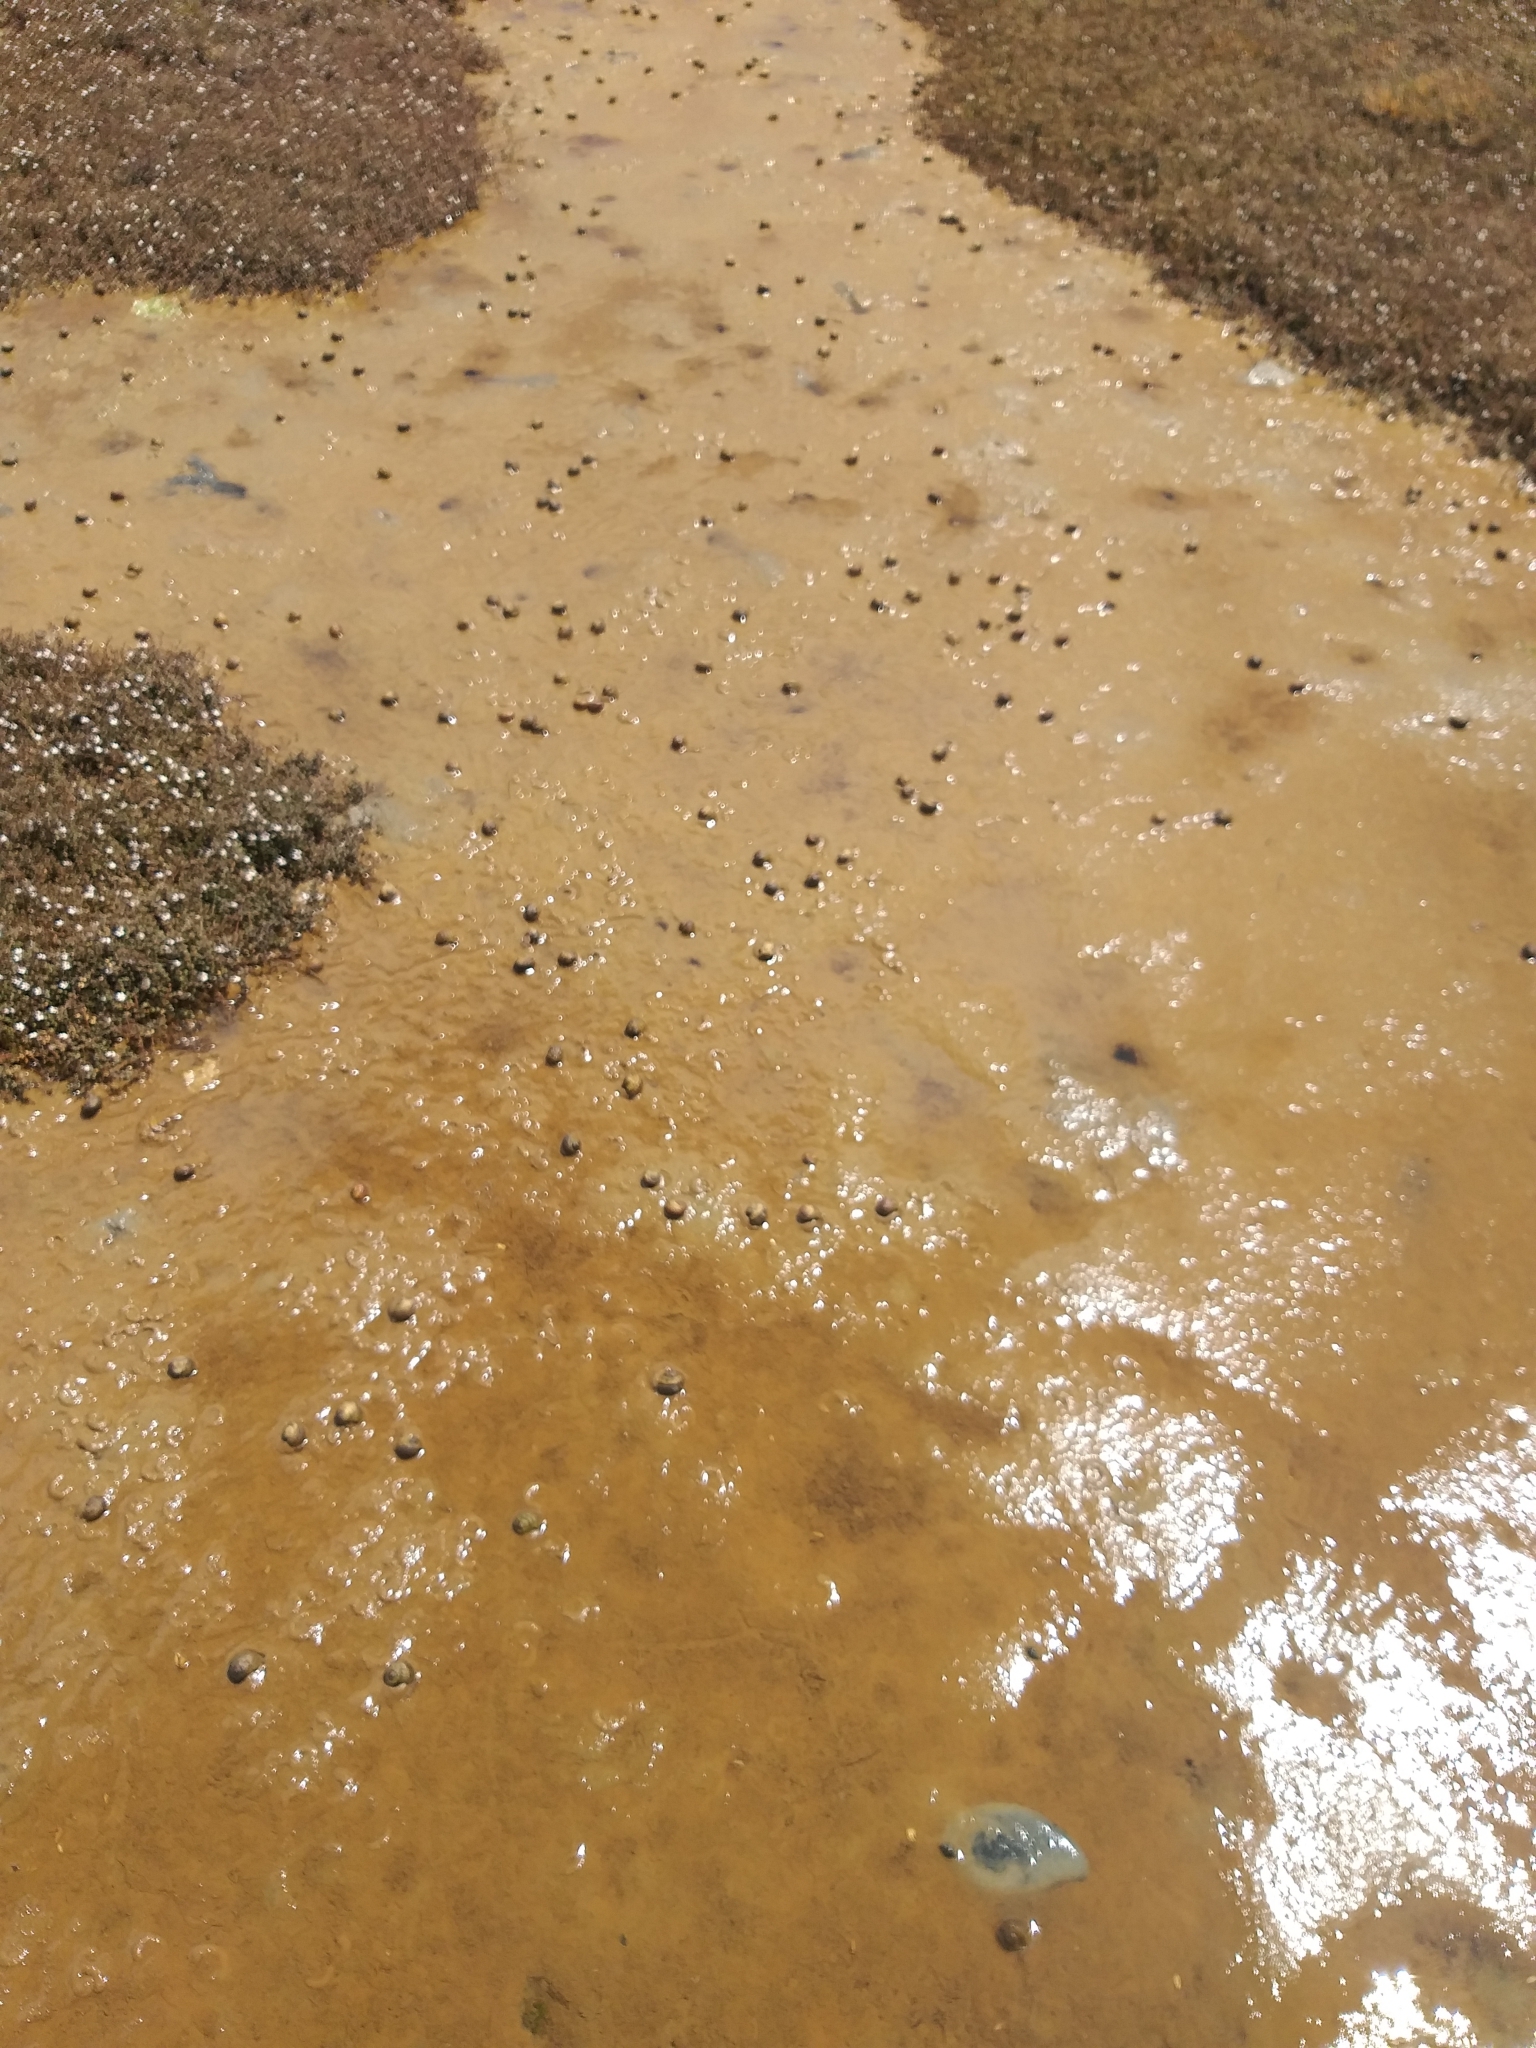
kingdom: Animalia
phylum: Mollusca
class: Gastropoda
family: Amphibolidae
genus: Amphibola
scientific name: Amphibola crenata
